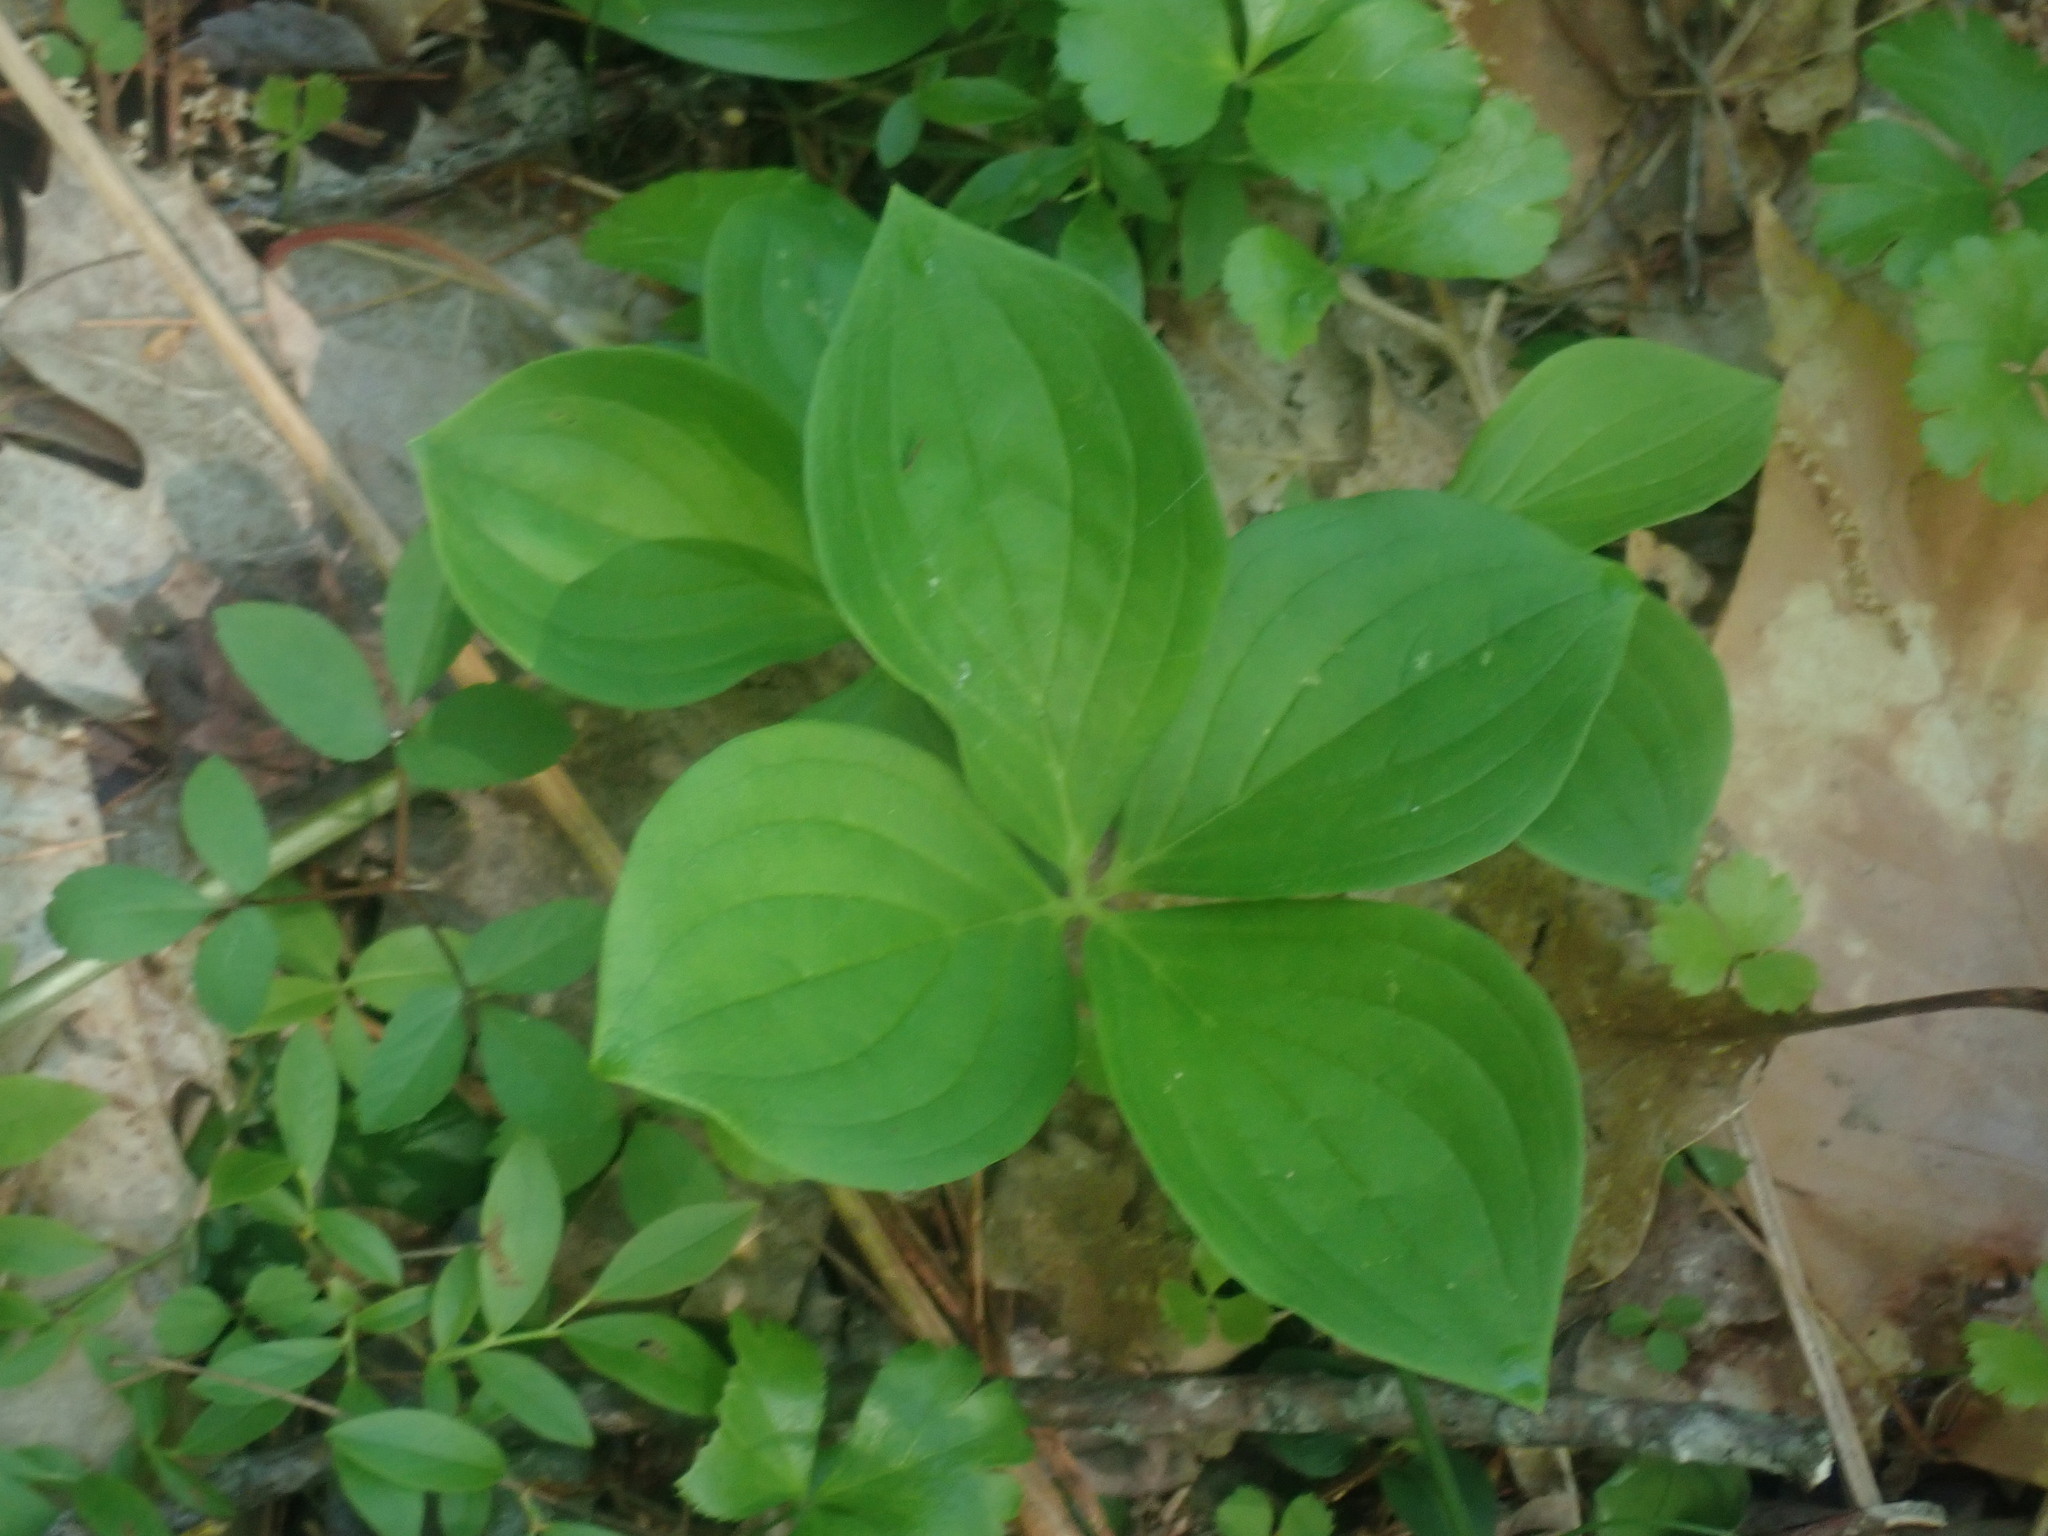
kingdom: Plantae
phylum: Tracheophyta
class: Magnoliopsida
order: Cornales
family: Cornaceae
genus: Cornus
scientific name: Cornus canadensis
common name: Creeping dogwood
